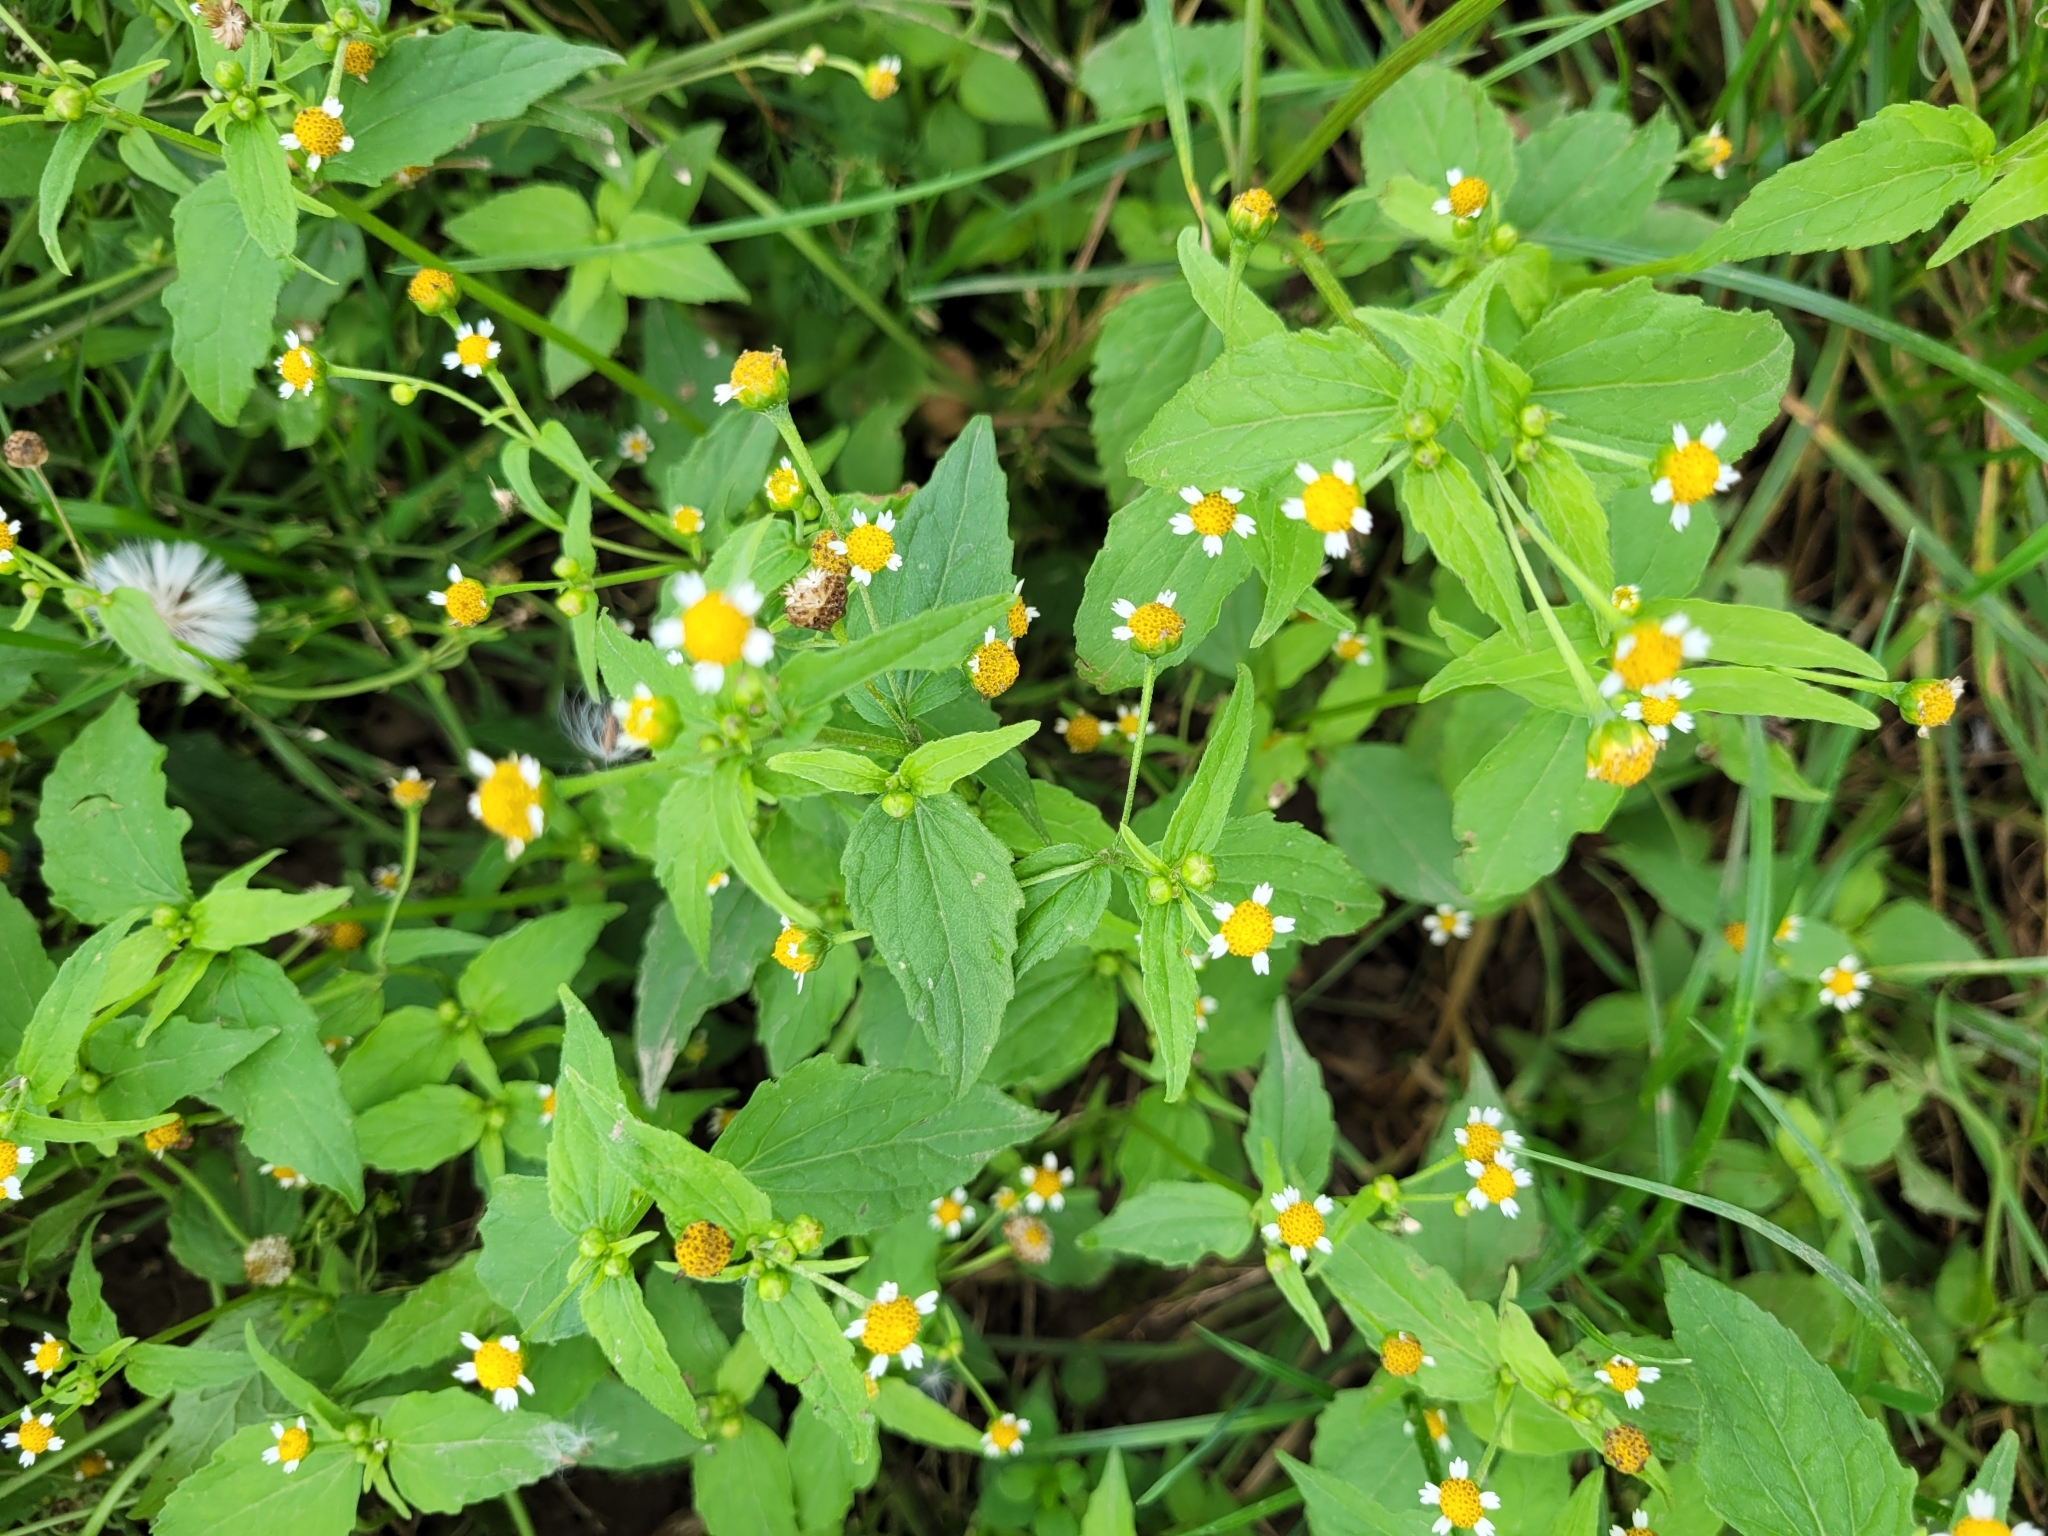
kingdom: Plantae
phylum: Tracheophyta
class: Magnoliopsida
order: Asterales
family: Asteraceae
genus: Galinsoga
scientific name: Galinsoga parviflora
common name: Gallant soldier
